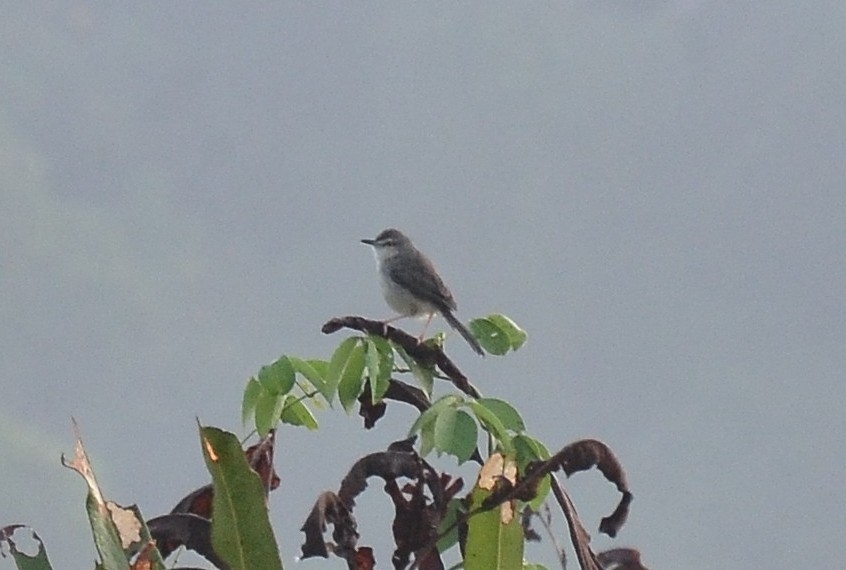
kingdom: Animalia
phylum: Chordata
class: Aves
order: Passeriformes
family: Cisticolidae
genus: Prinia
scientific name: Prinia inornata
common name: Plain prinia
